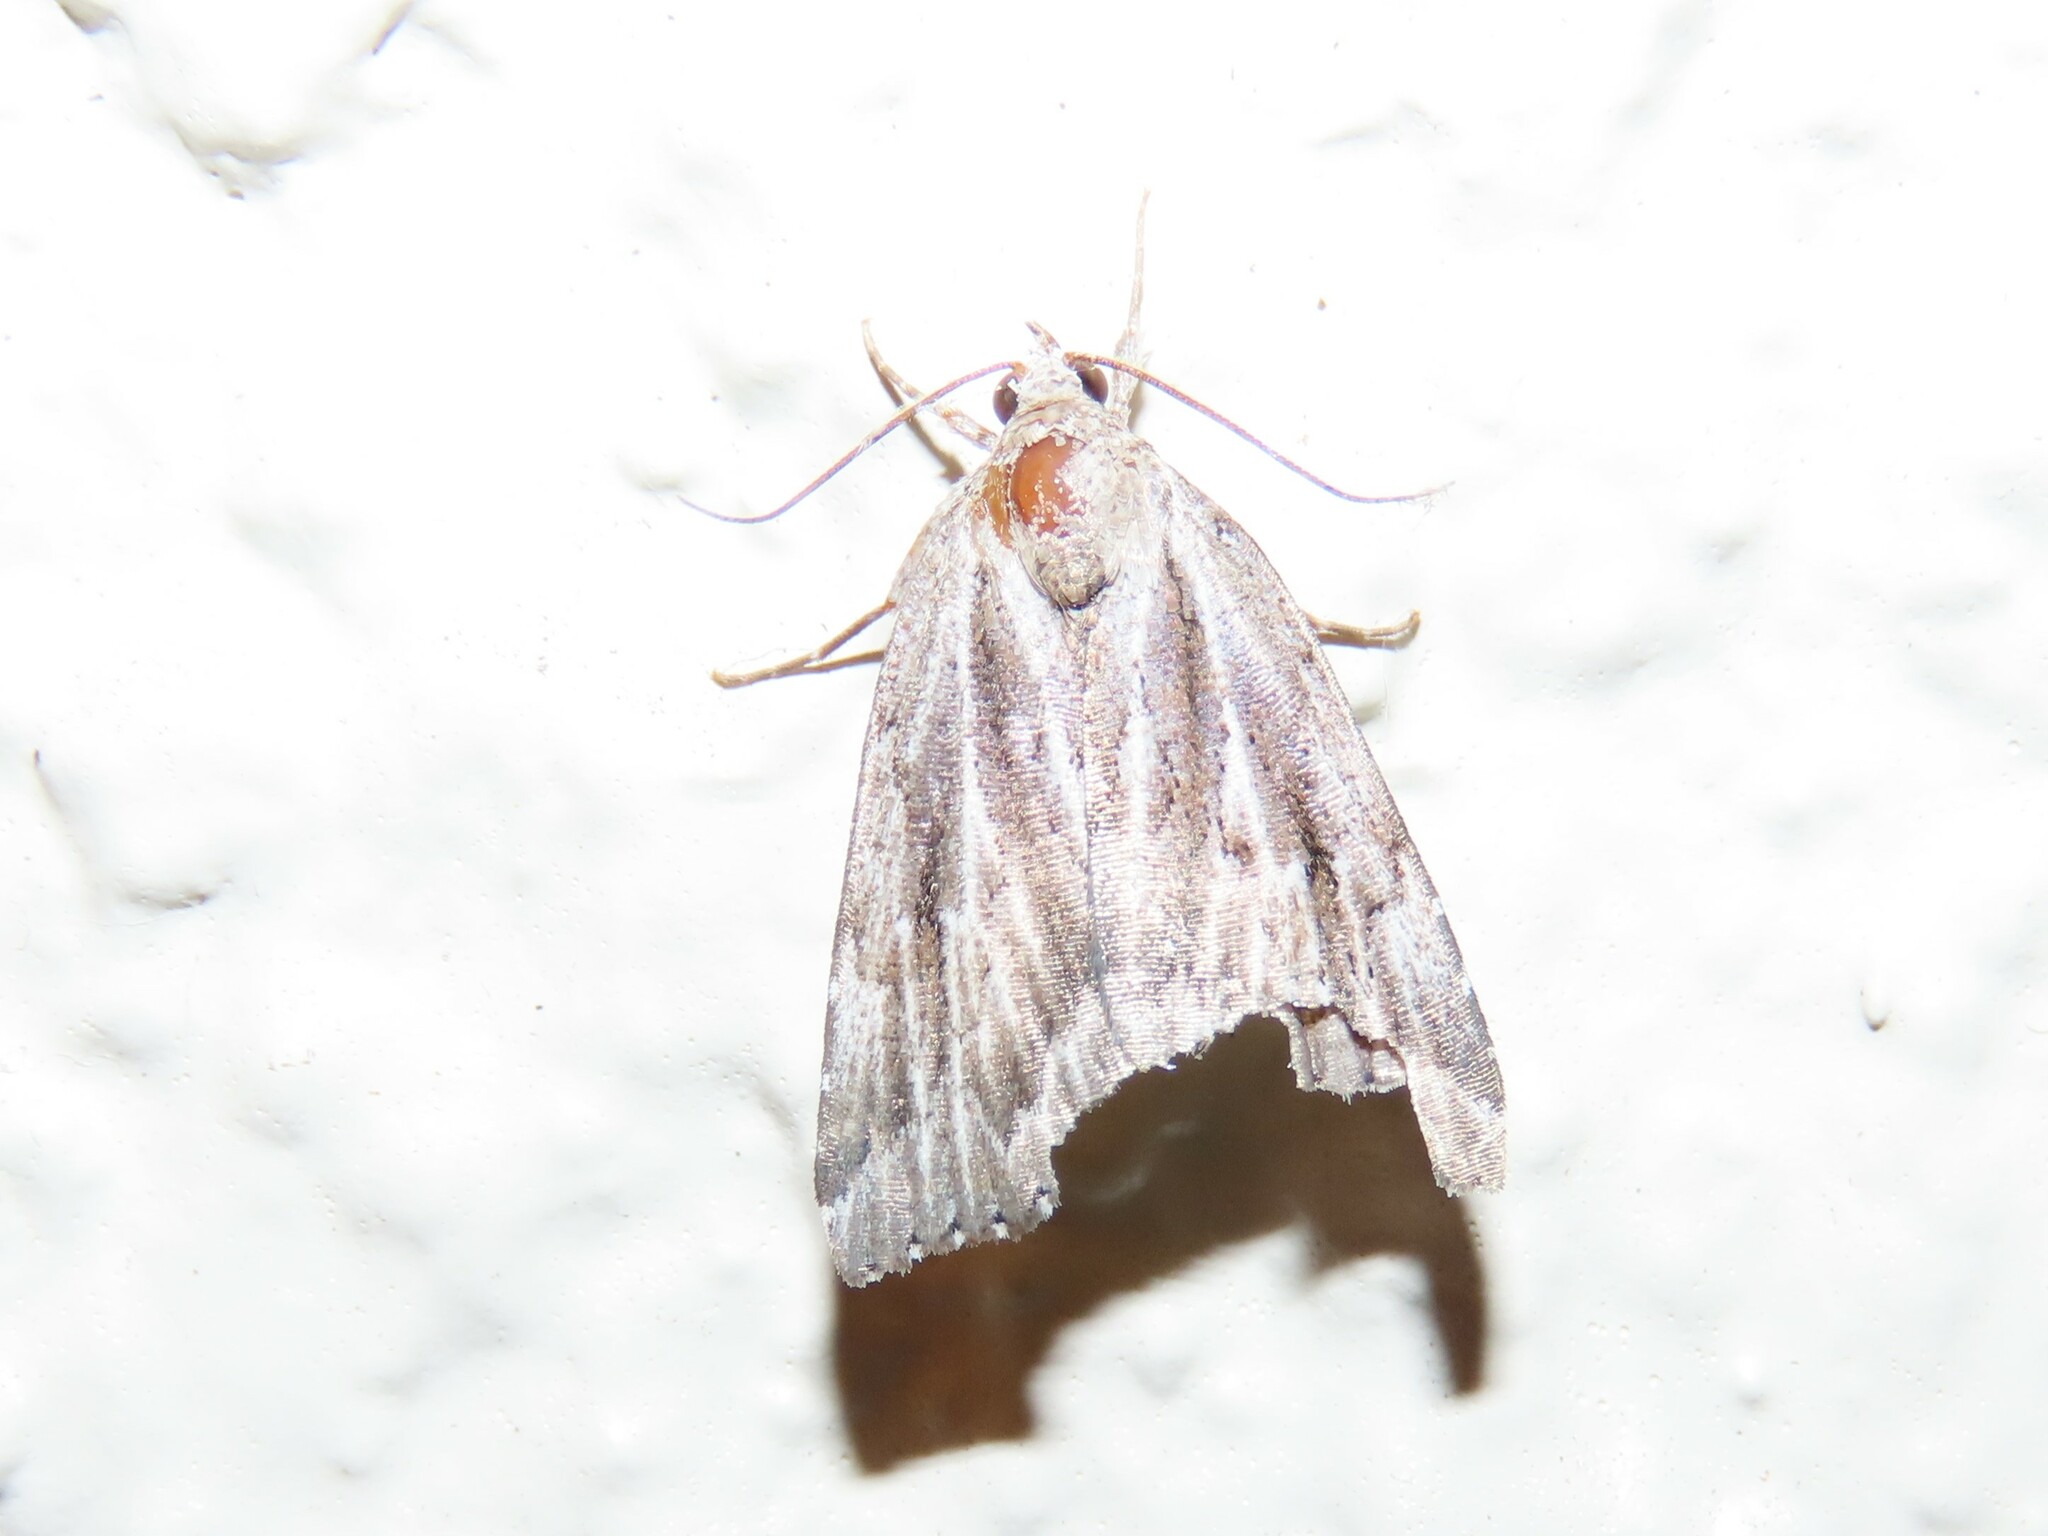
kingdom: Animalia
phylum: Arthropoda
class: Insecta
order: Lepidoptera
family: Erebidae
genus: Cutina
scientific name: Cutina albopunctella
